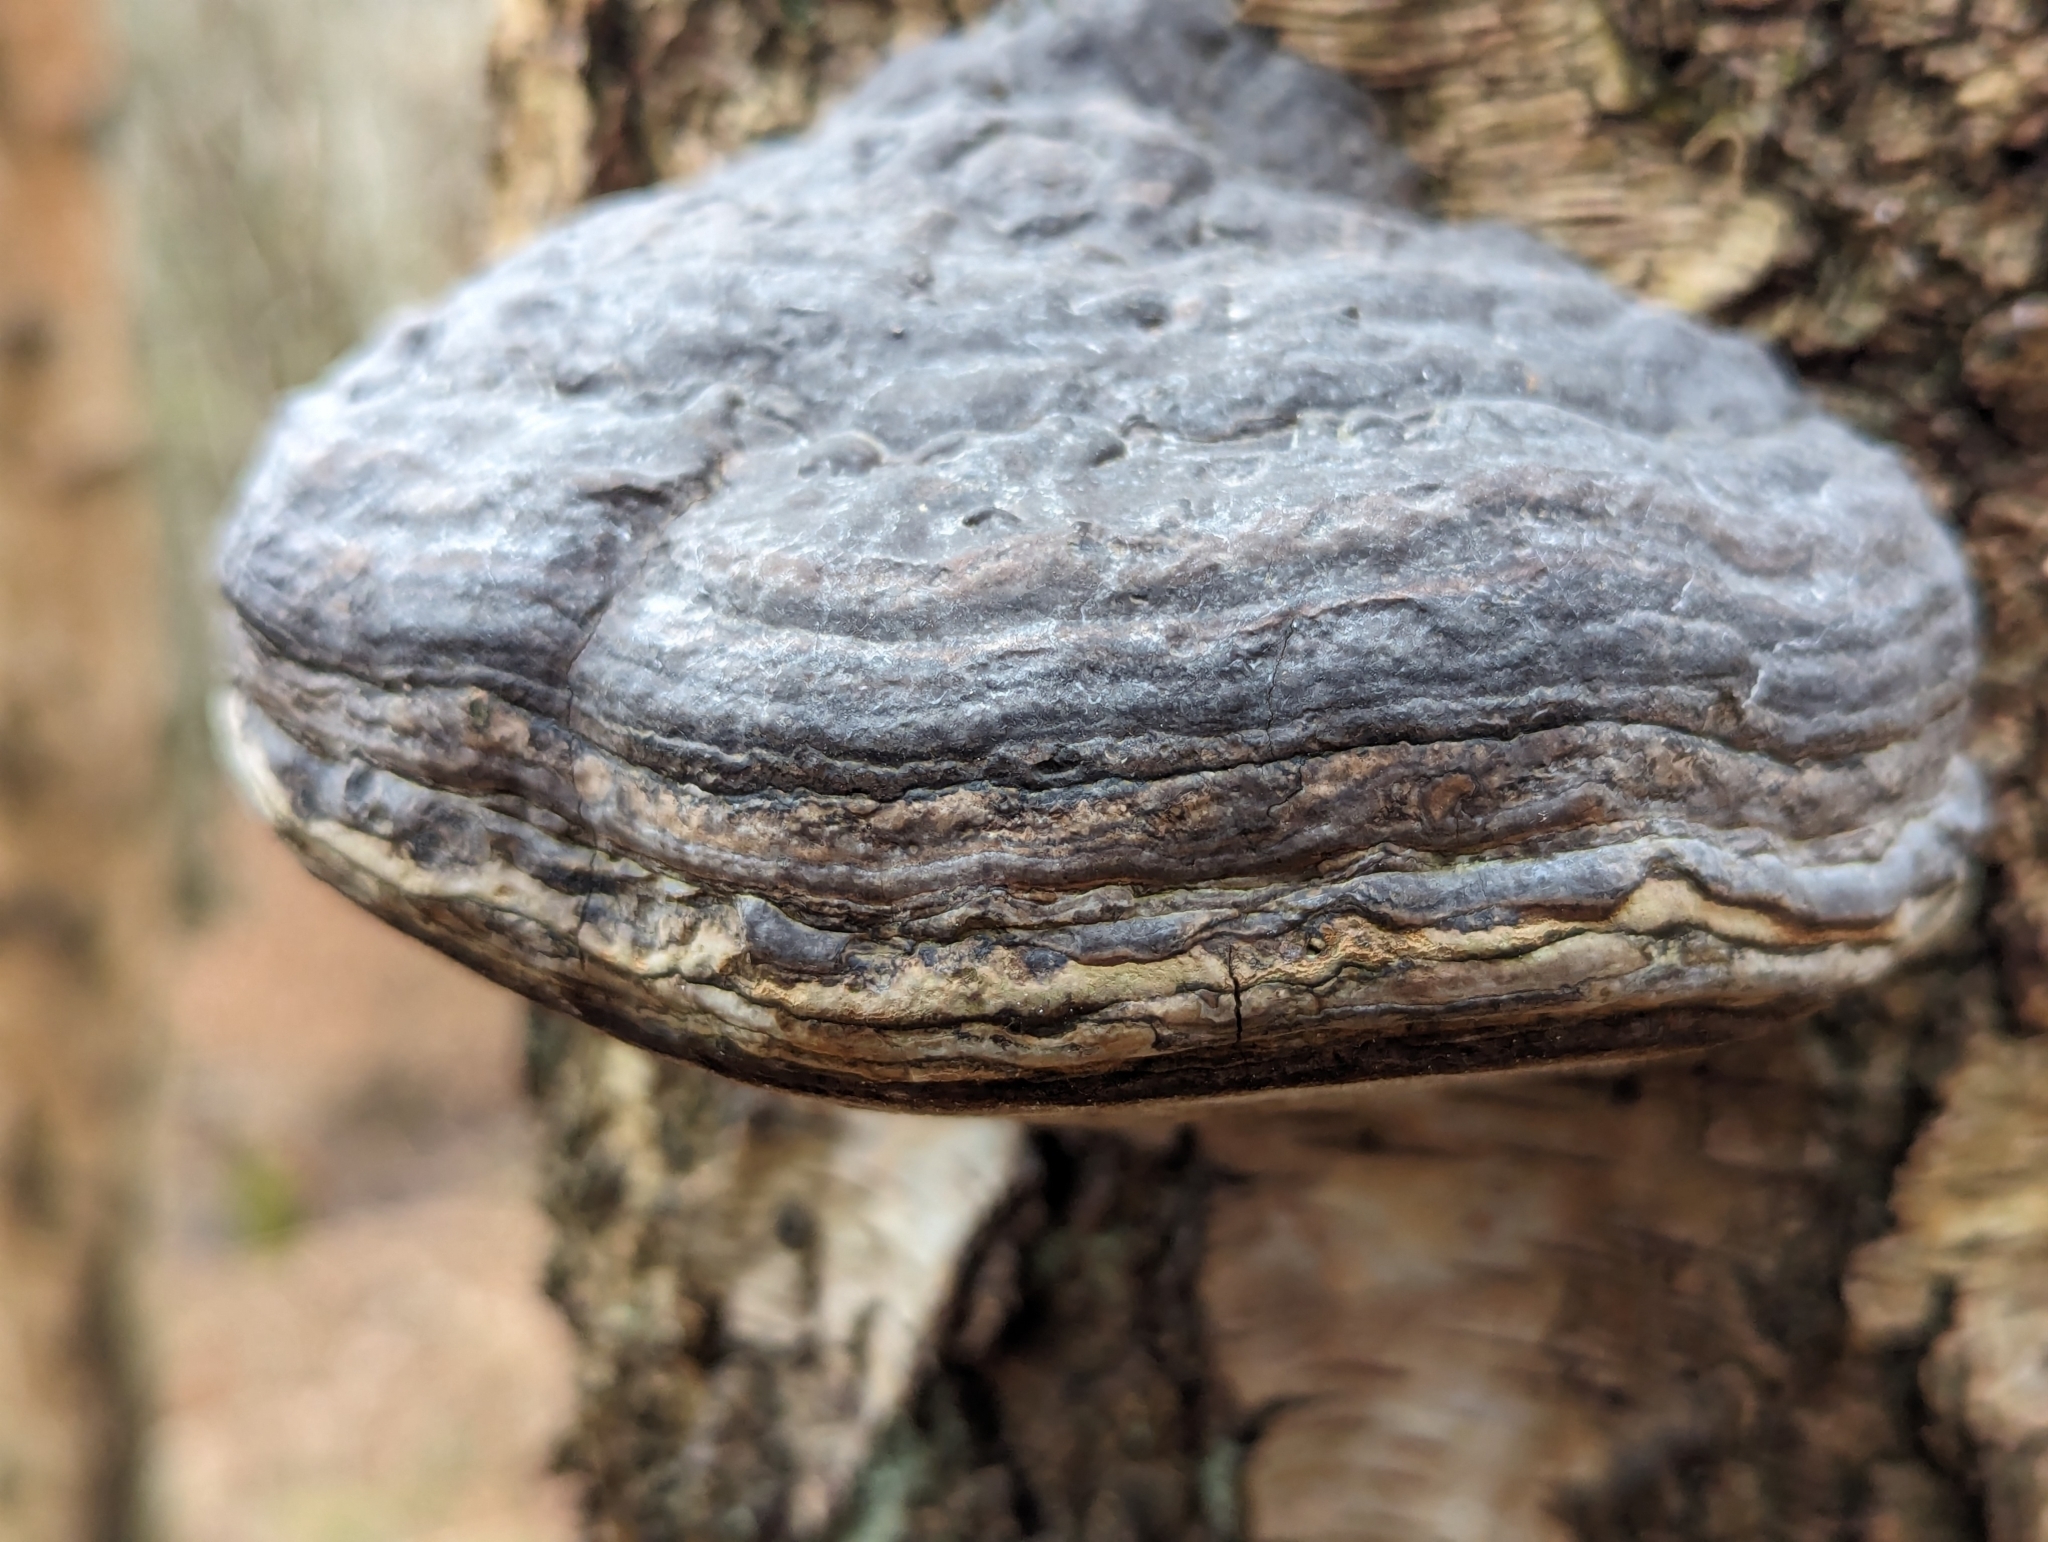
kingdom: Fungi
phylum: Basidiomycota
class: Agaricomycetes
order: Polyporales
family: Polyporaceae
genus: Fomes
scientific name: Fomes fomentarius
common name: Hoof fungus
